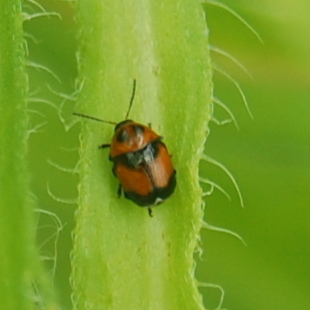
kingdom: Animalia
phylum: Arthropoda
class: Insecta
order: Coleoptera
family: Chrysomelidae
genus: Lexiphanes
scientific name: Lexiphanes
